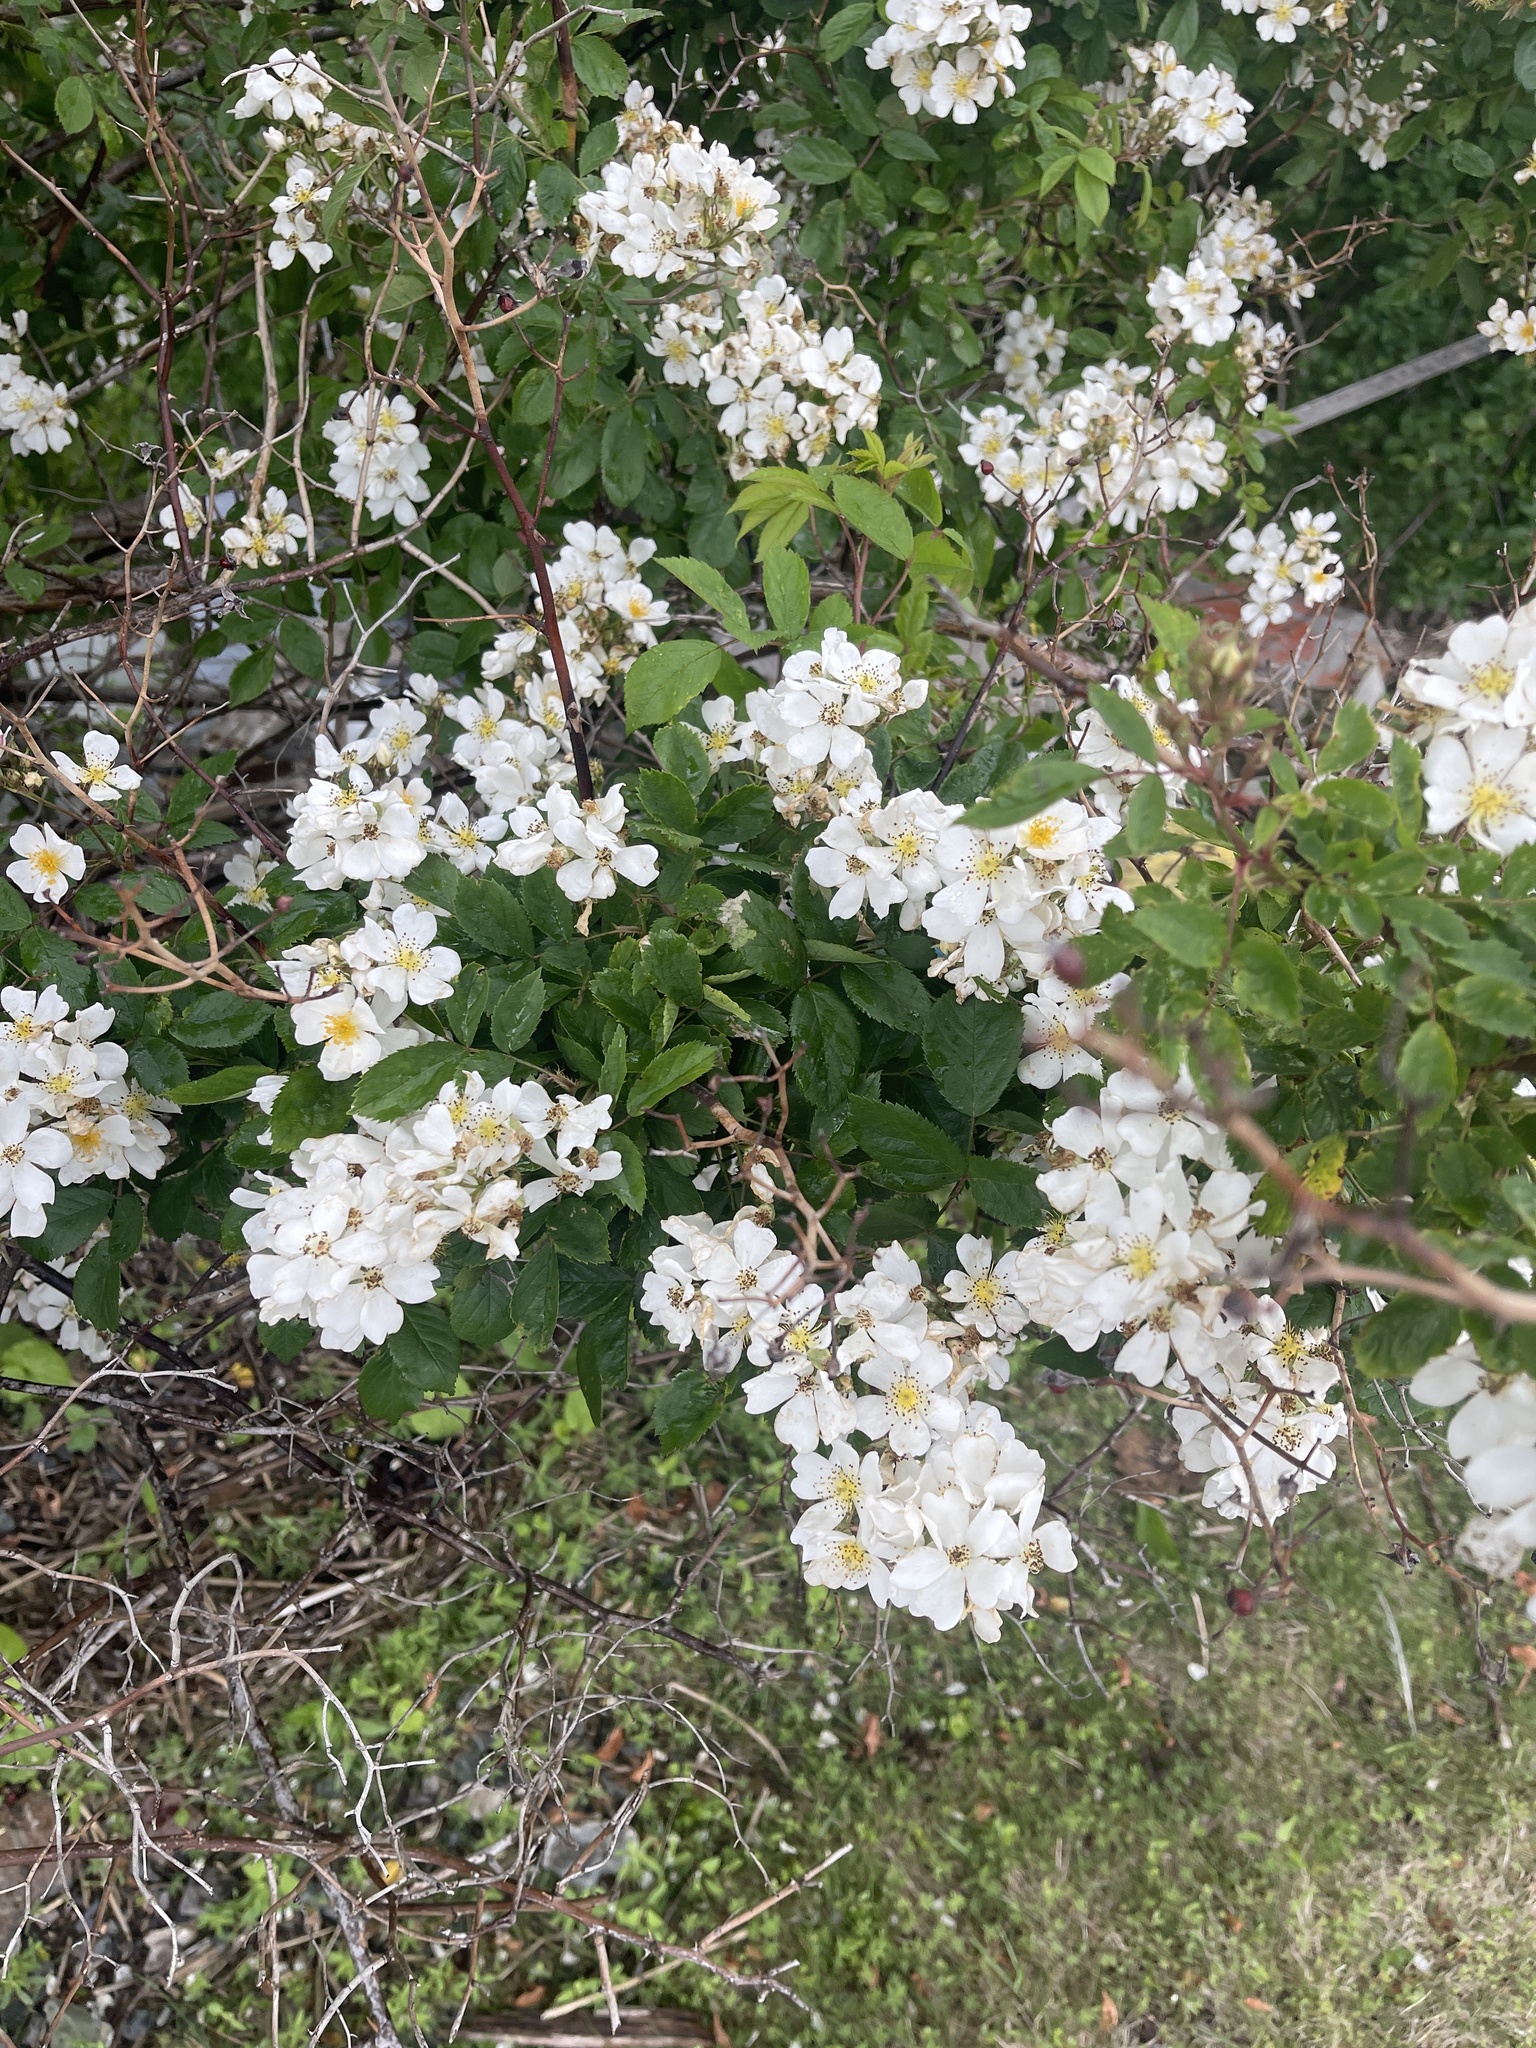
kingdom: Plantae
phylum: Tracheophyta
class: Magnoliopsida
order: Rosales
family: Rosaceae
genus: Rosa
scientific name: Rosa multiflora
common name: Multiflora rose
